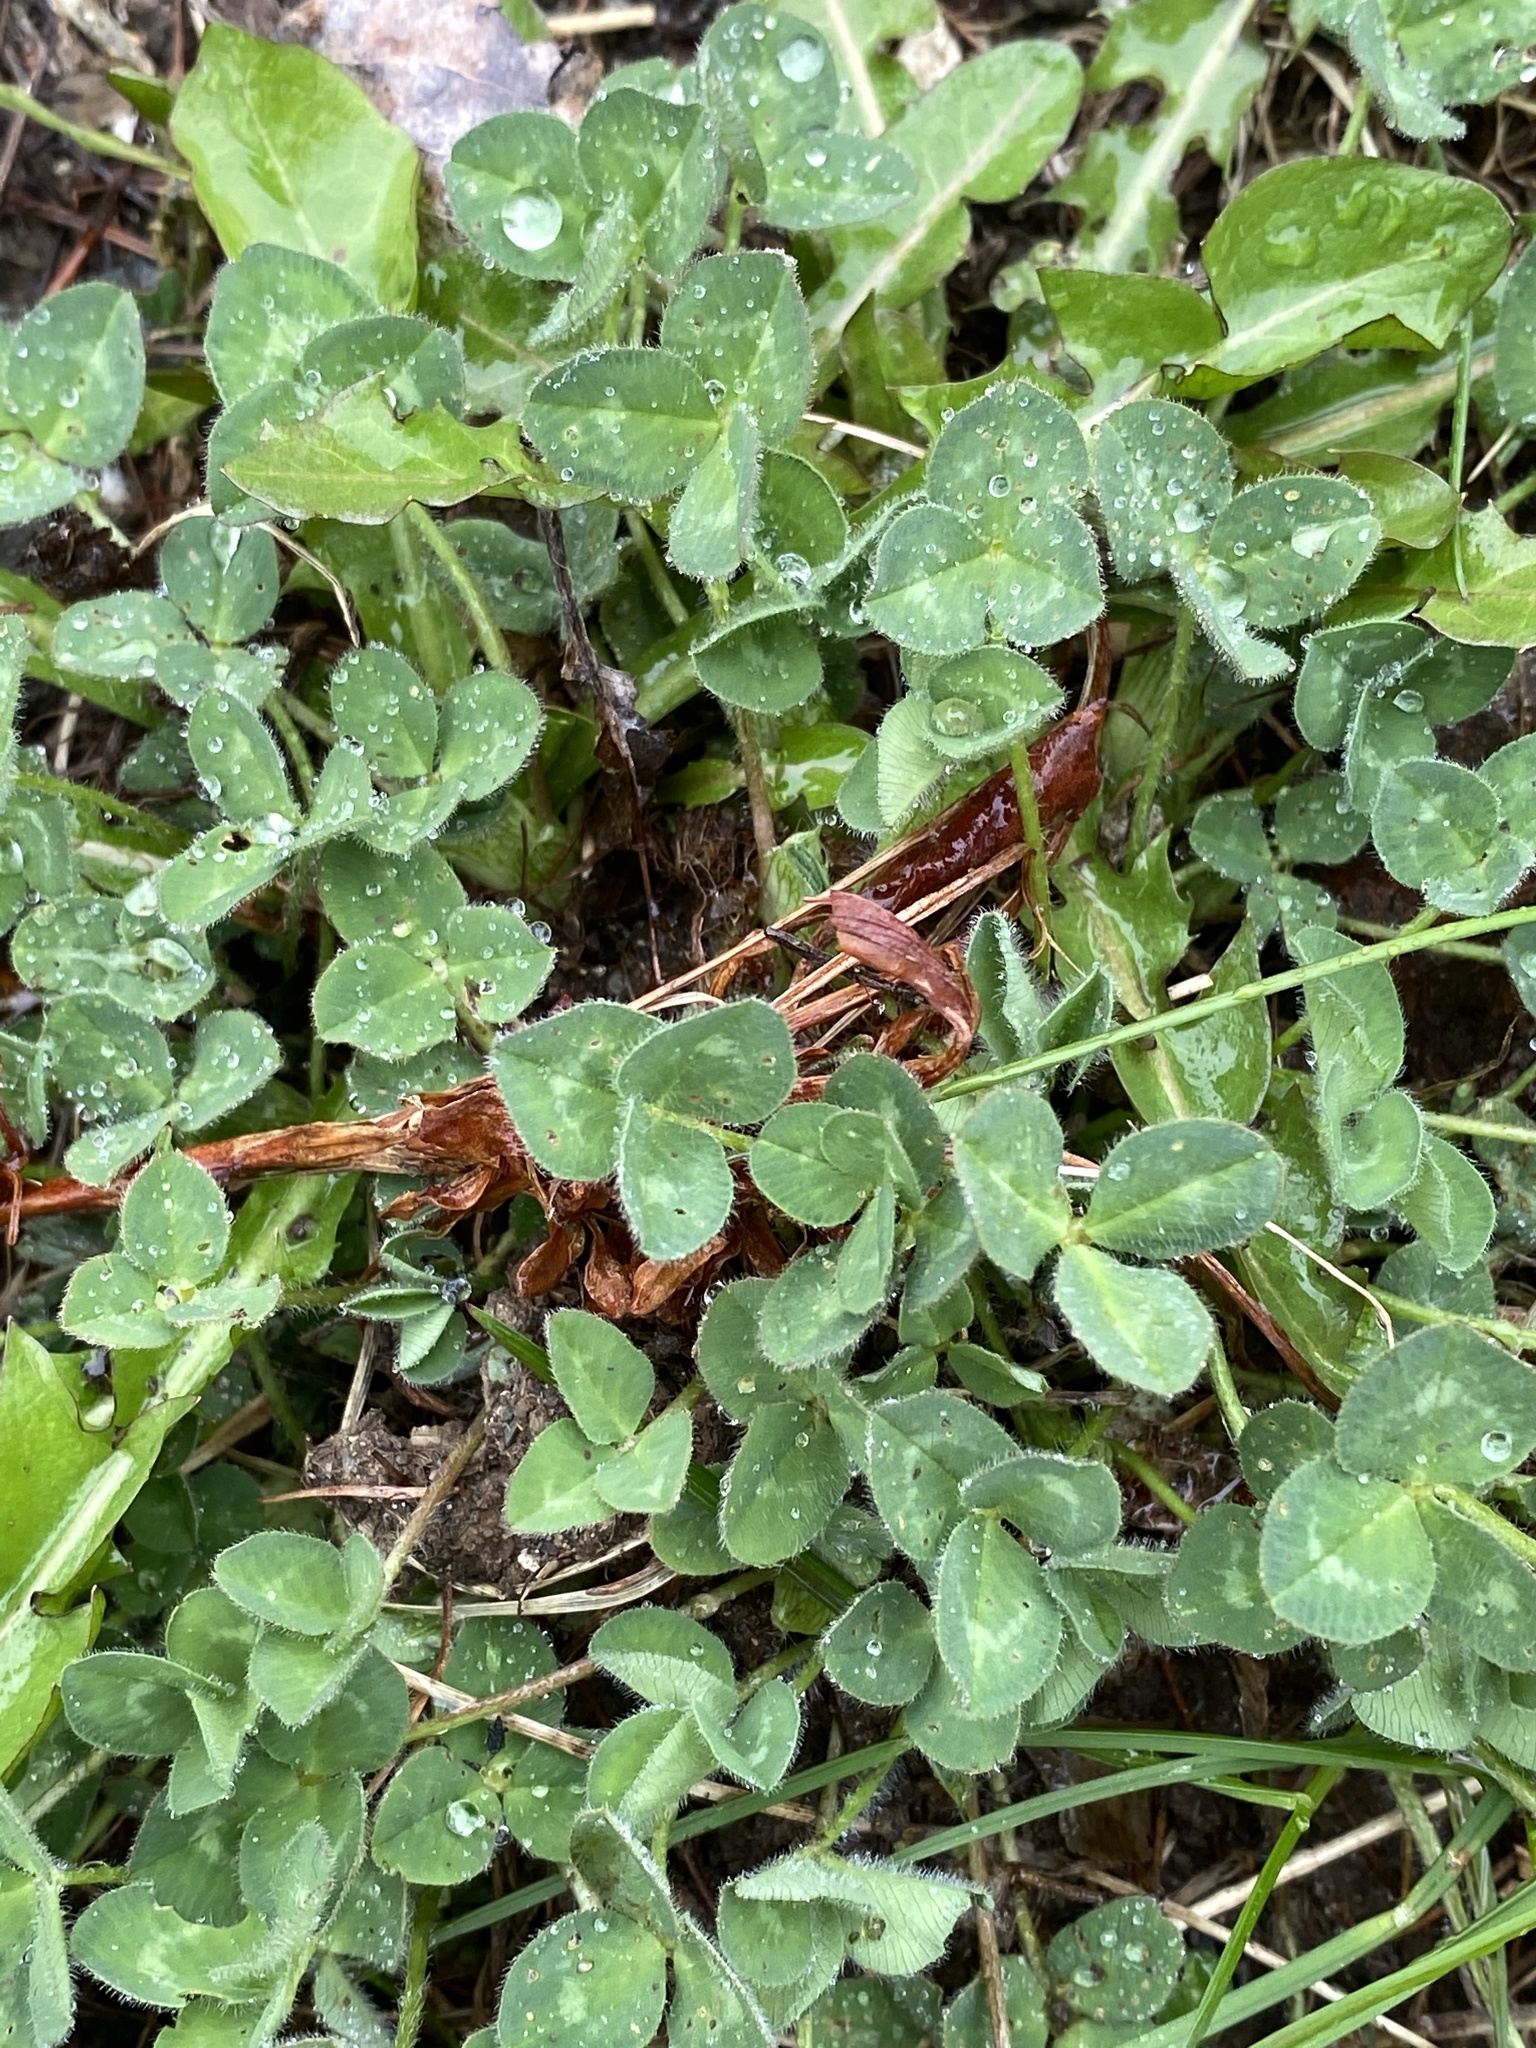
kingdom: Plantae
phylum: Tracheophyta
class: Magnoliopsida
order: Fabales
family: Fabaceae
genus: Trifolium
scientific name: Trifolium pratense
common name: Red clover
